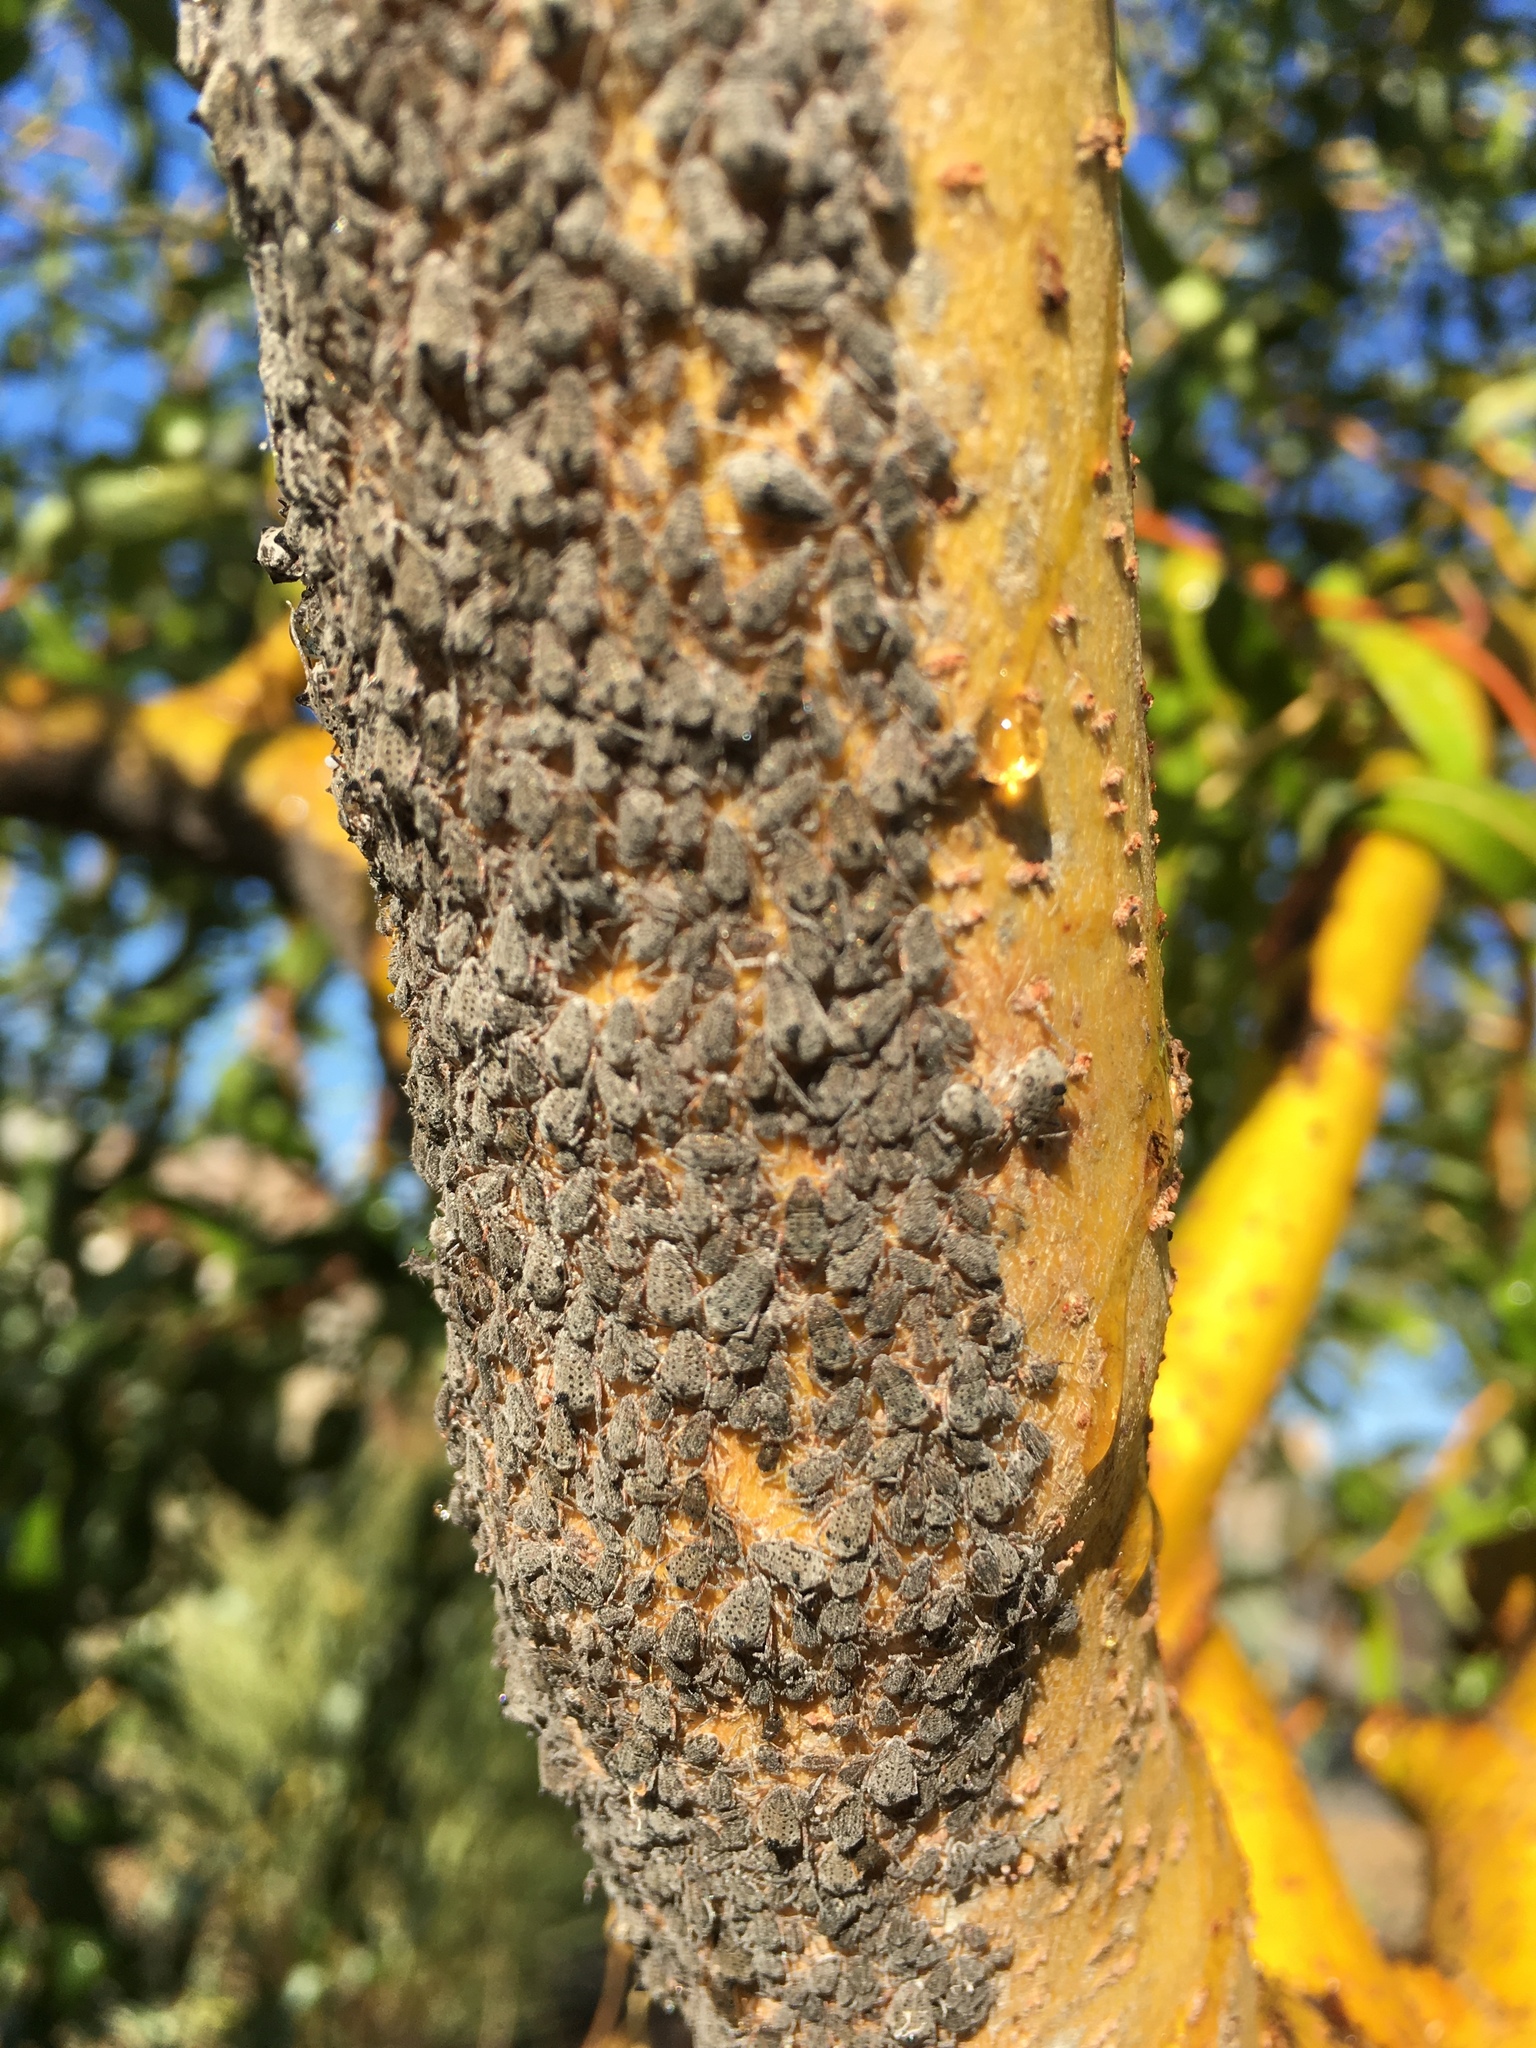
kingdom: Animalia
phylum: Arthropoda
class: Insecta
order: Hemiptera
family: Aphididae
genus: Tuberolachnus
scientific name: Tuberolachnus salignus
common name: Giant willow aphid
